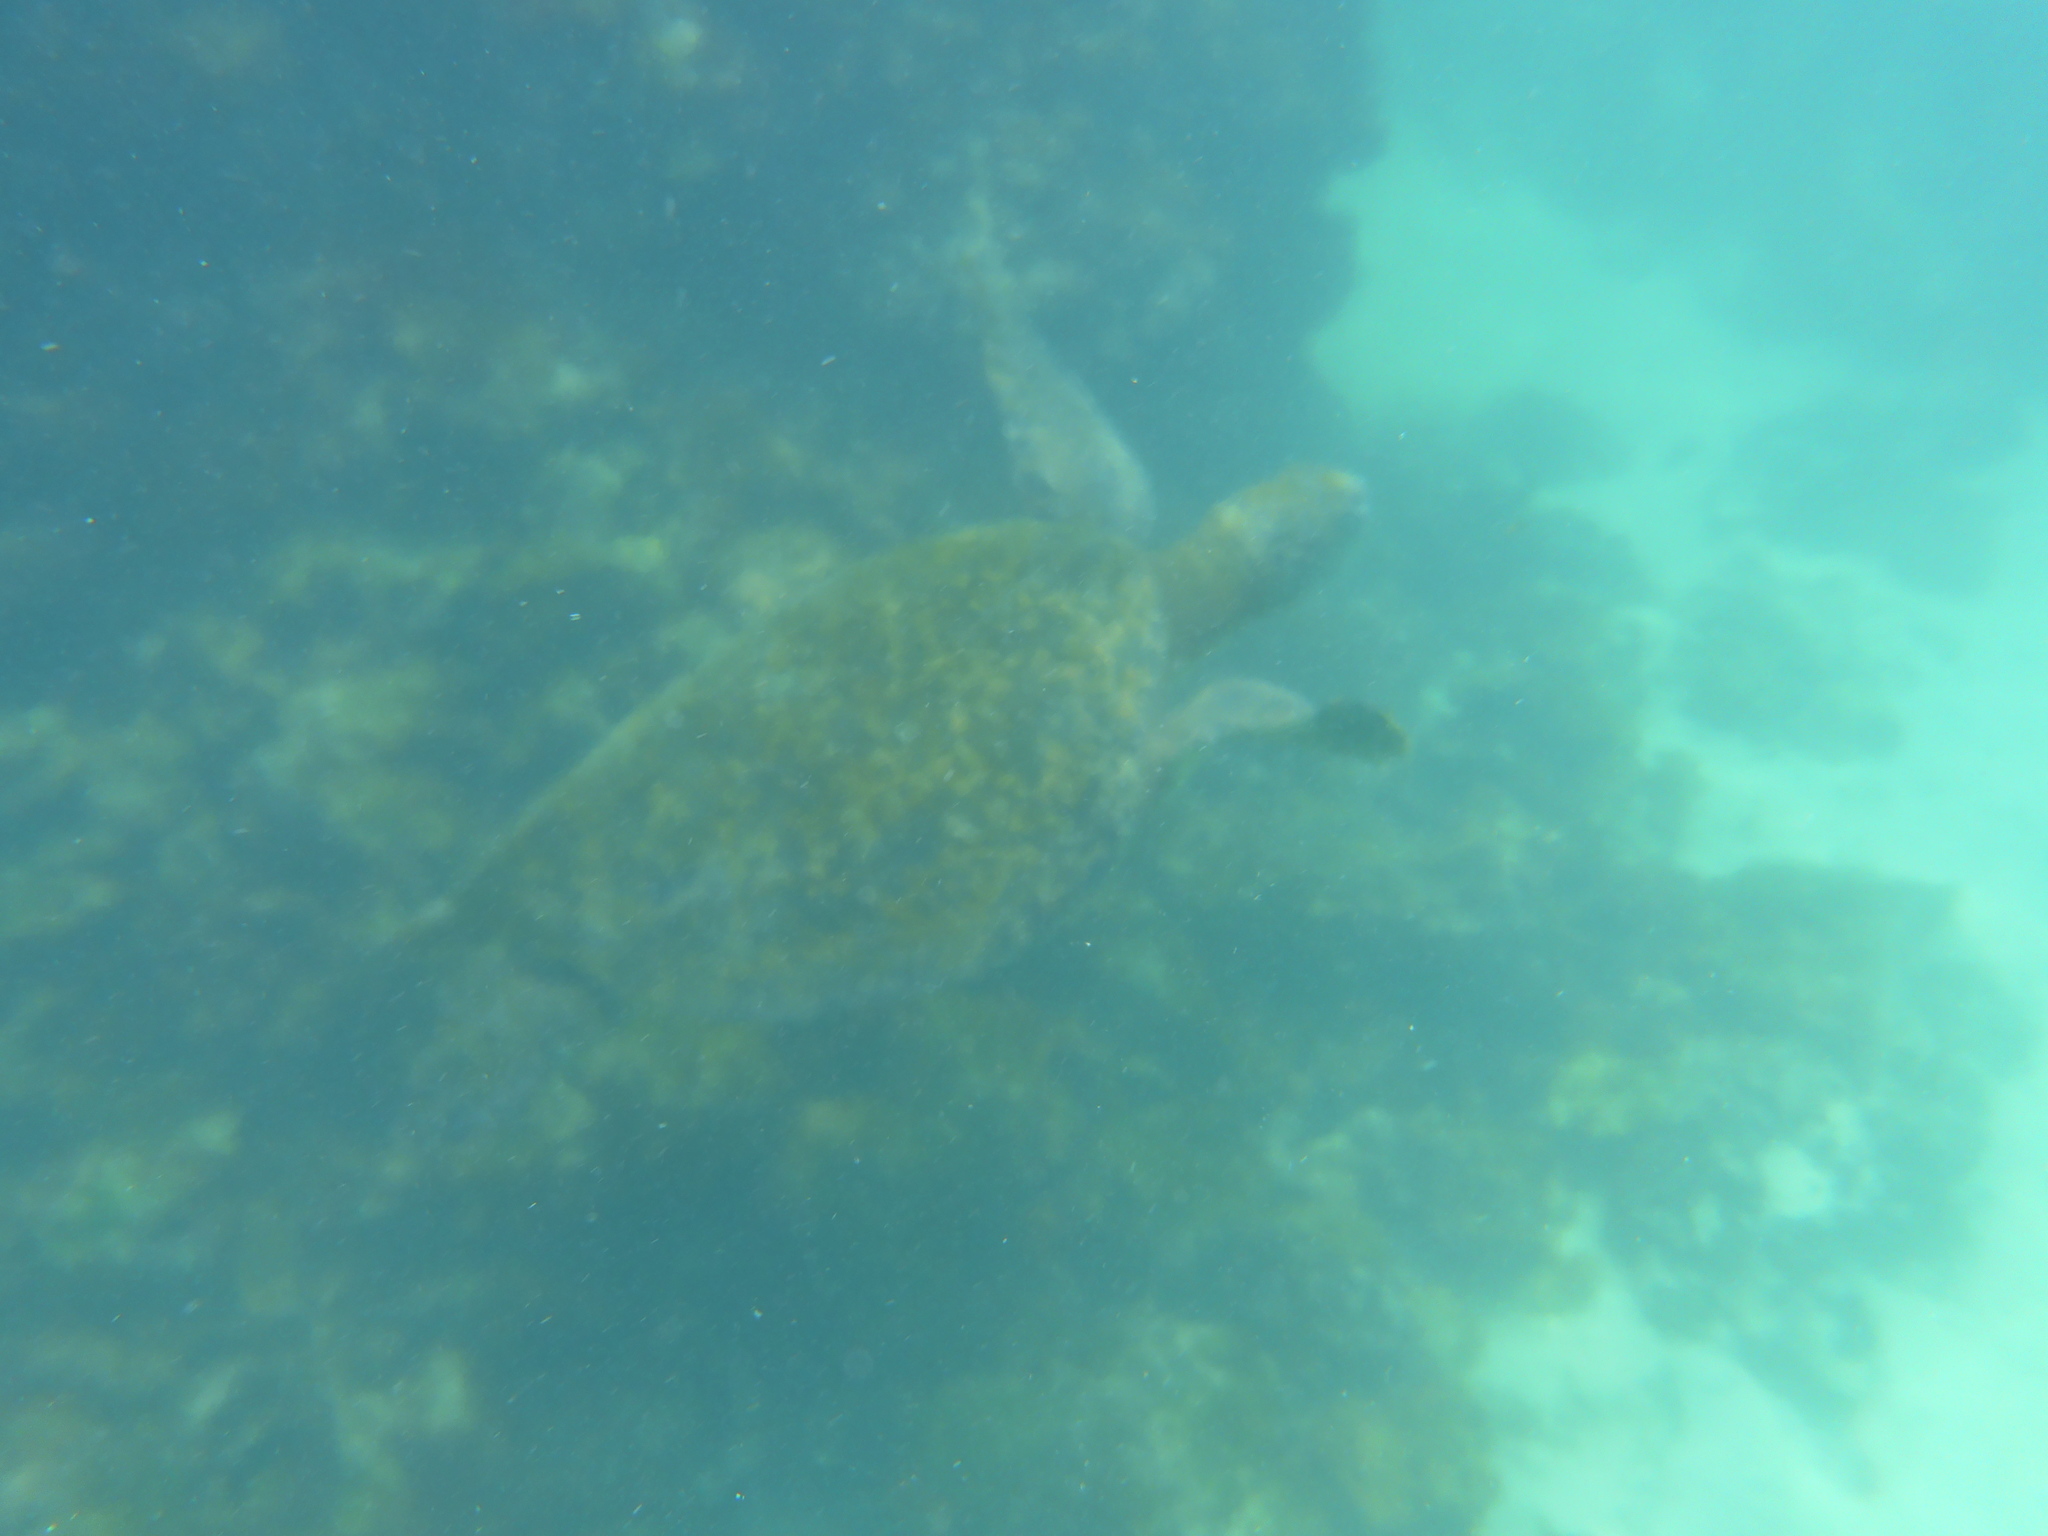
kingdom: Animalia
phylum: Chordata
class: Testudines
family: Cheloniidae
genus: Chelonia
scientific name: Chelonia mydas
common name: Green turtle
